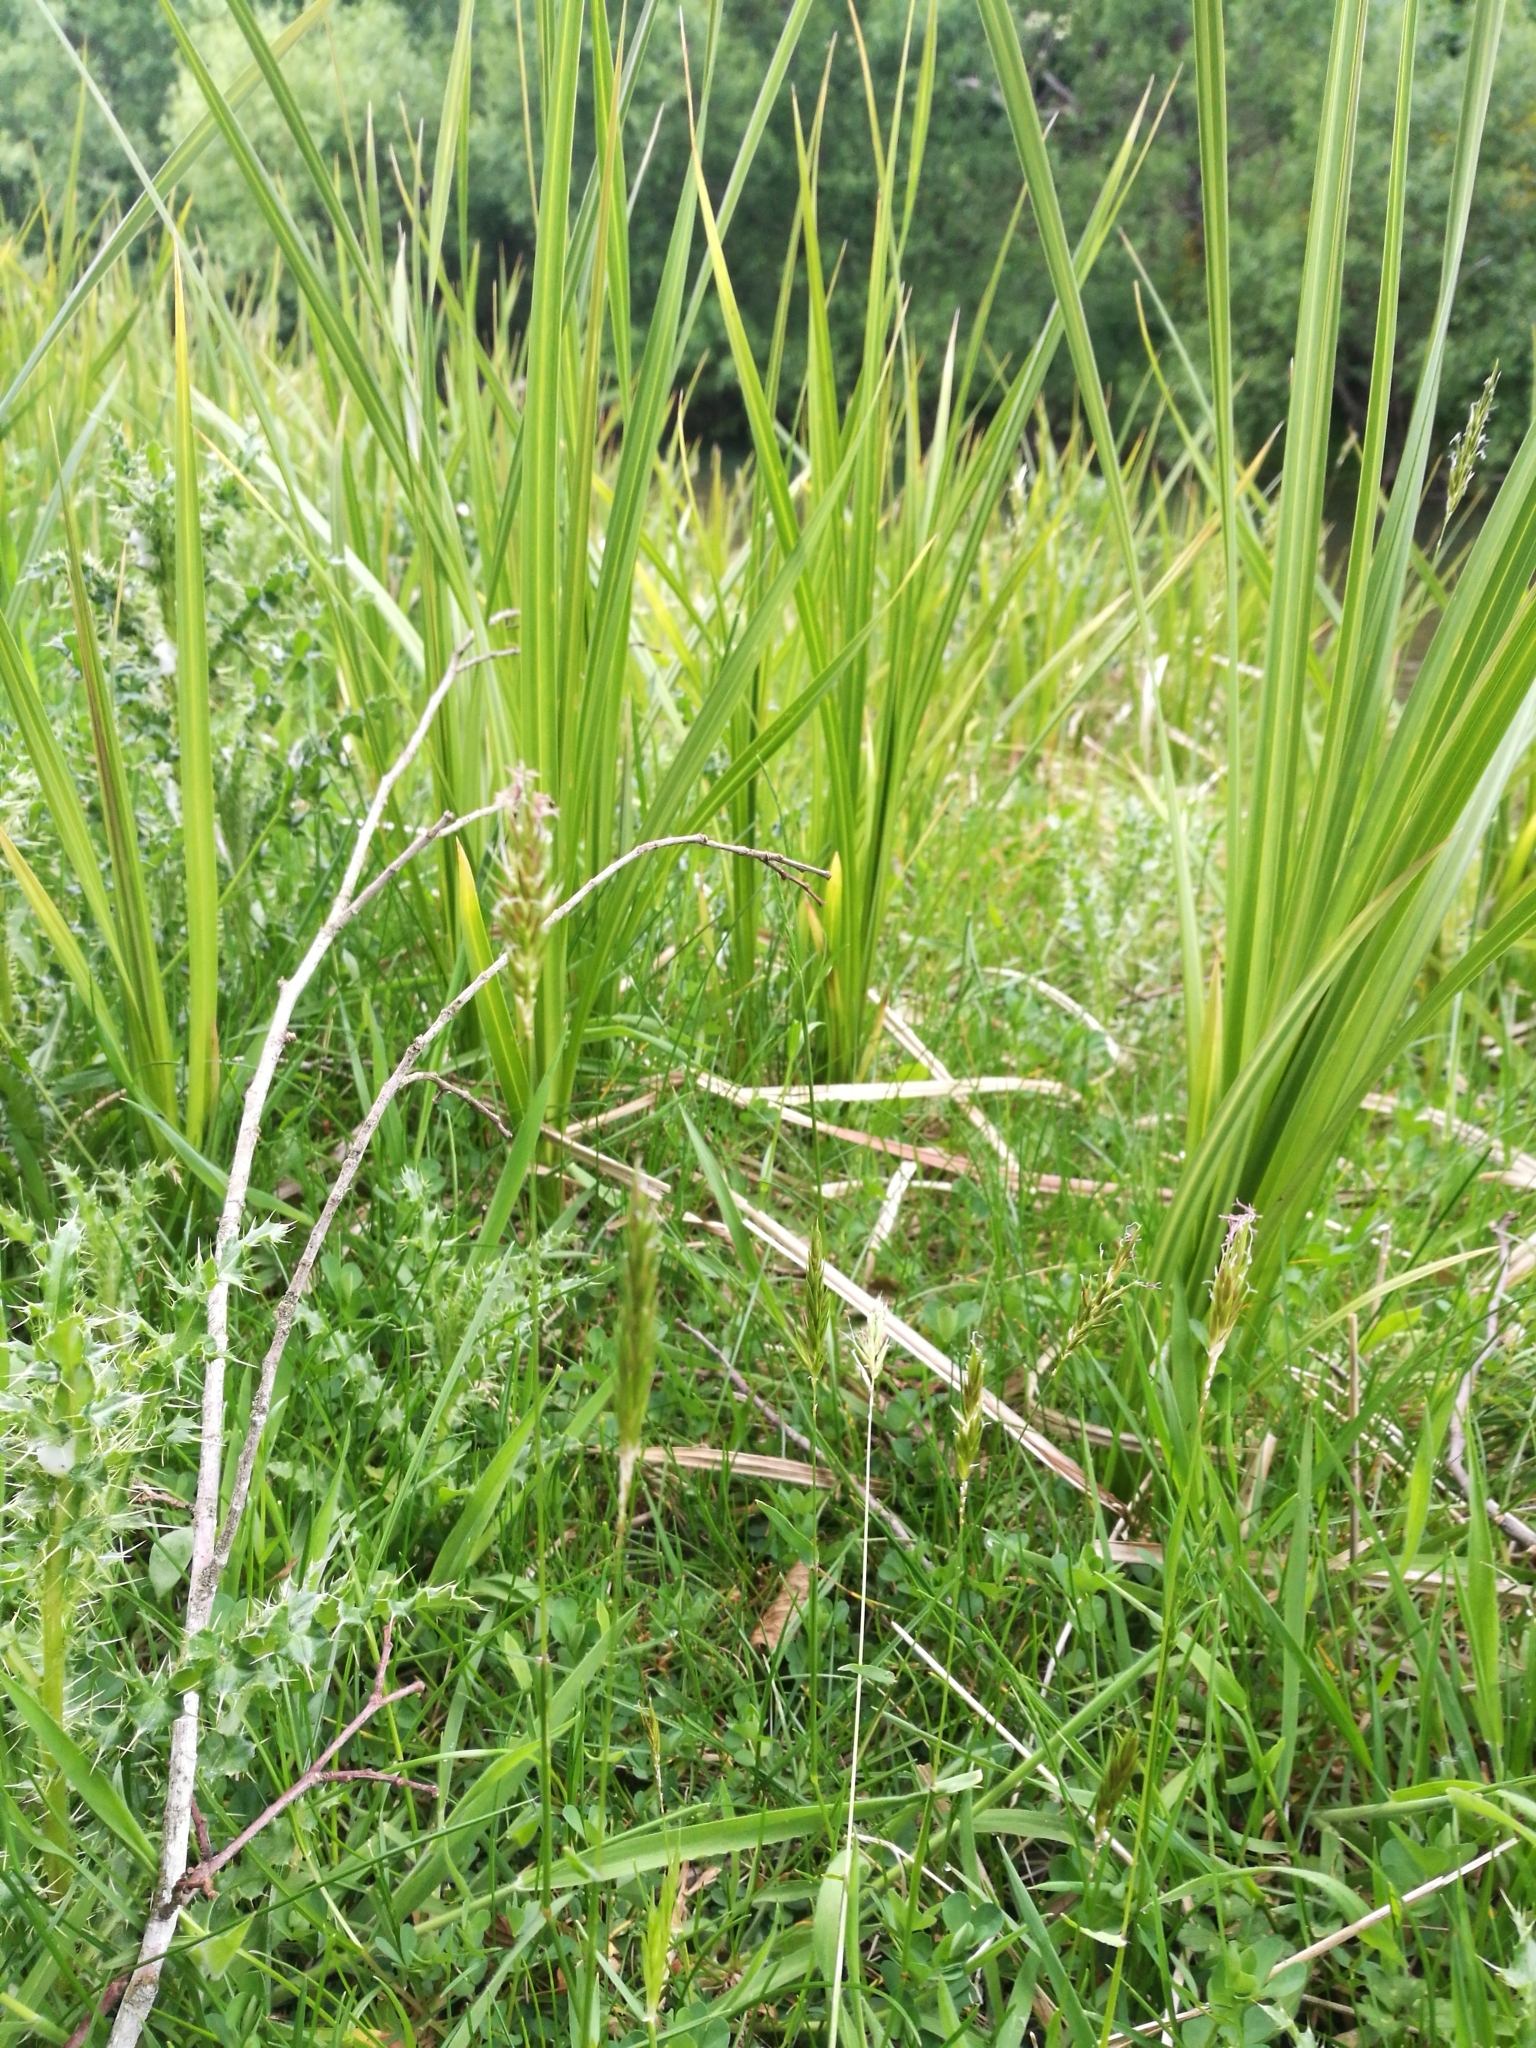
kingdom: Plantae
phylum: Tracheophyta
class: Liliopsida
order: Poales
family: Poaceae
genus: Anthoxanthum
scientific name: Anthoxanthum odoratum
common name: Sweet vernalgrass
